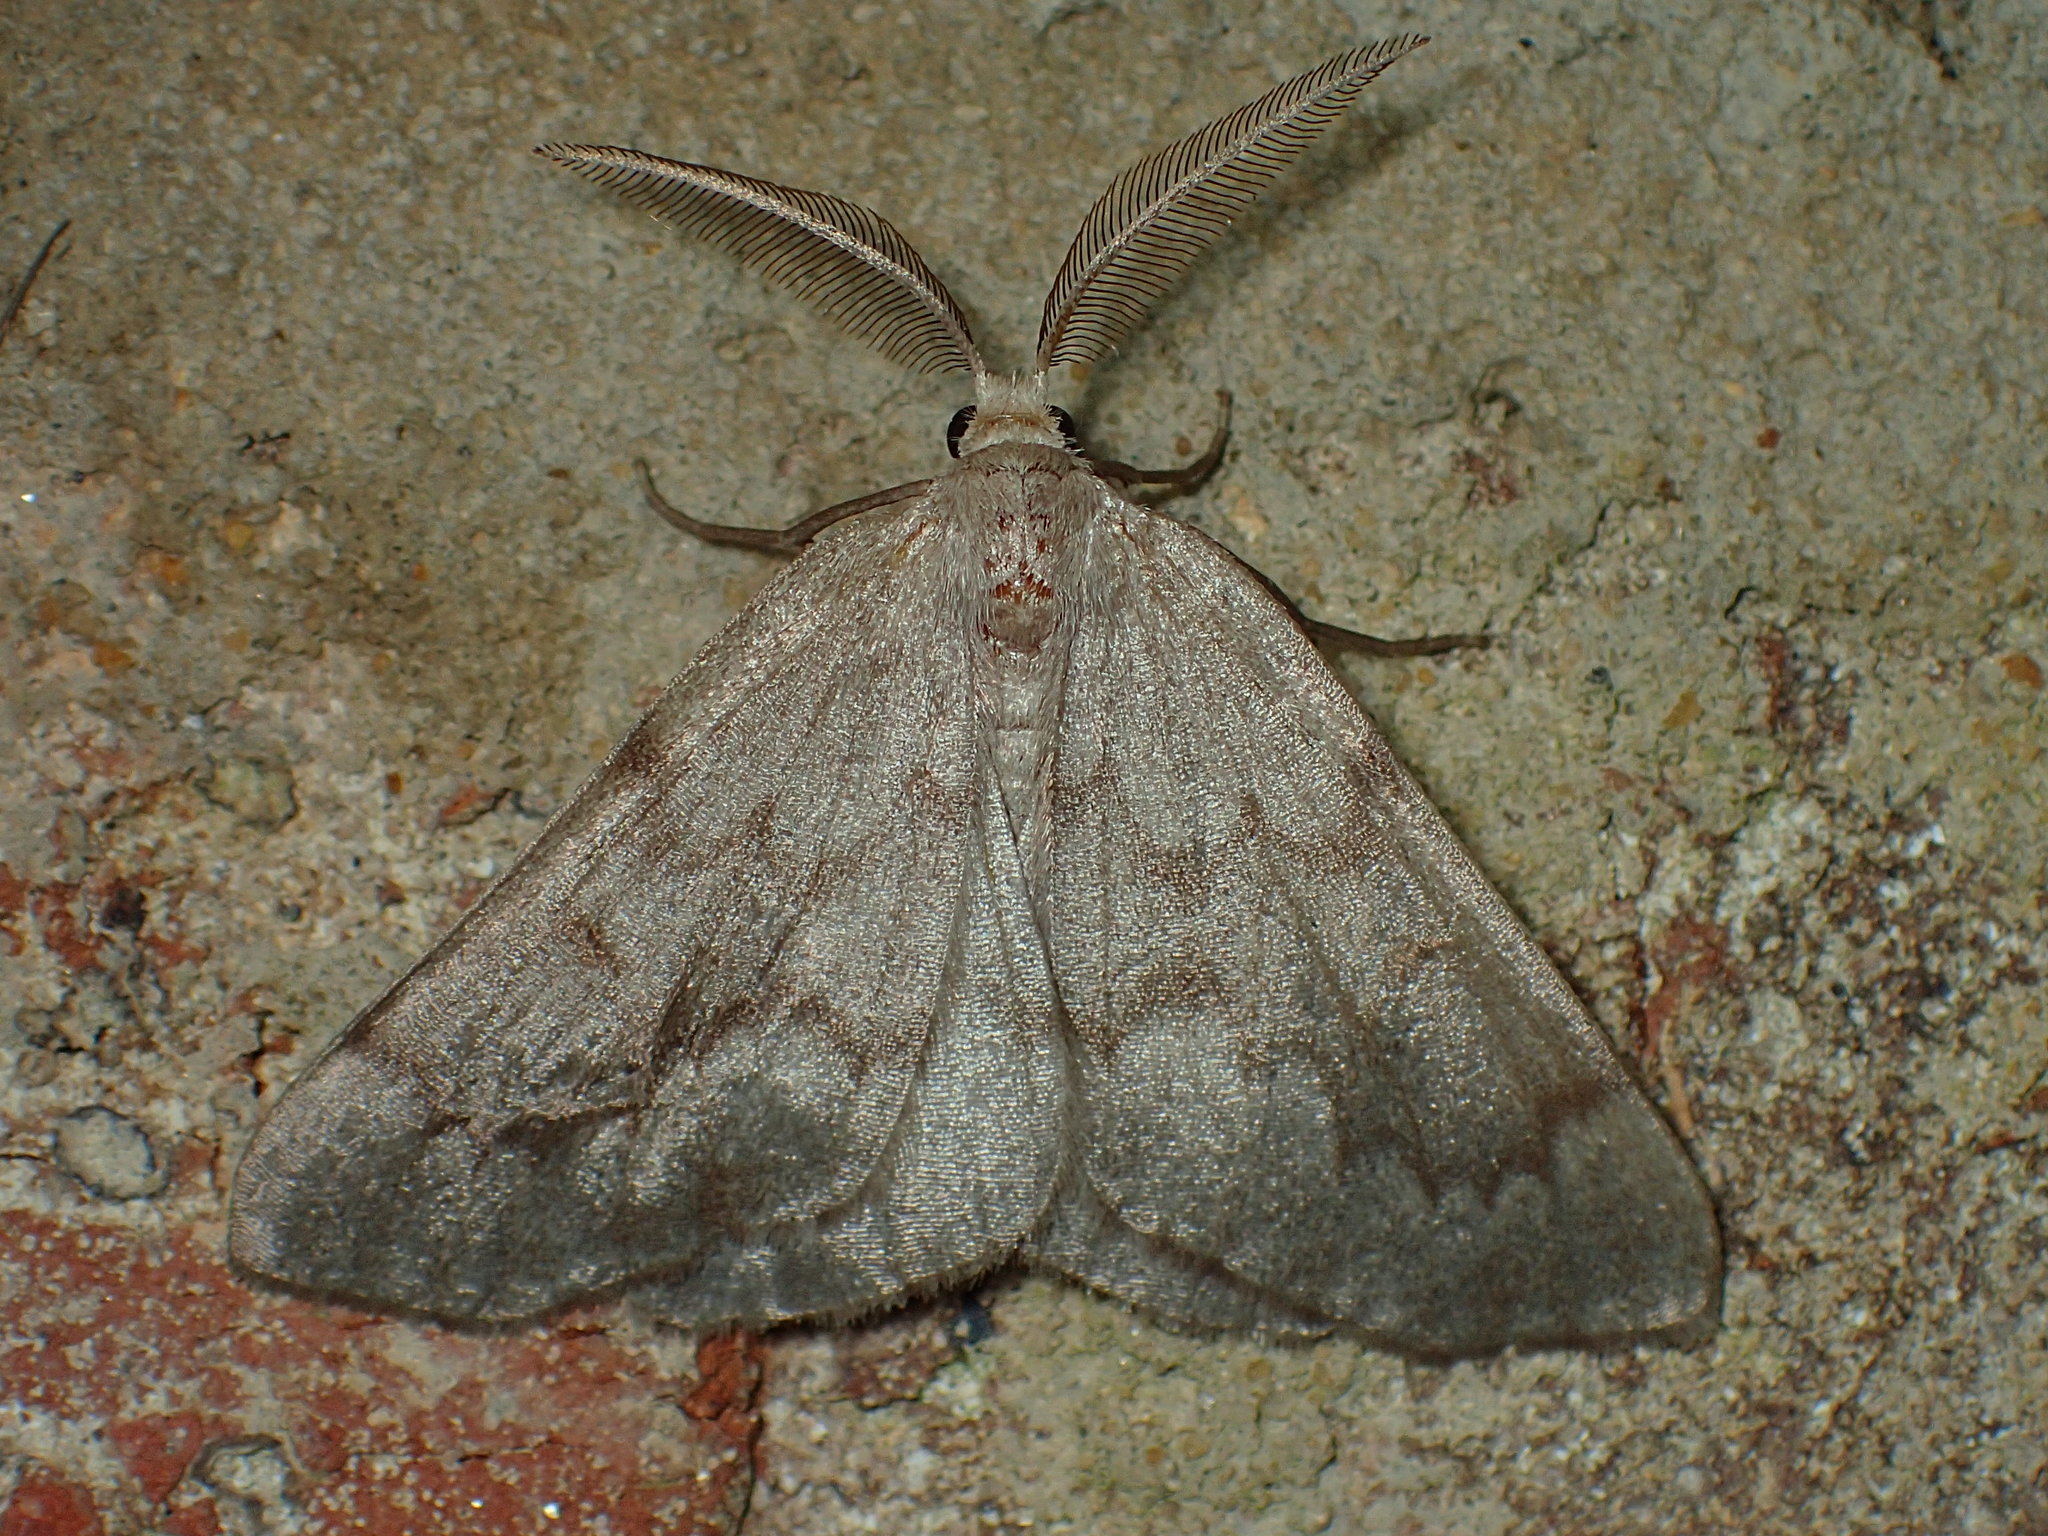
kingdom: Animalia
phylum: Arthropoda
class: Insecta
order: Lepidoptera
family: Geometridae
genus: Nepytia
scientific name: Nepytia semiclusaria
